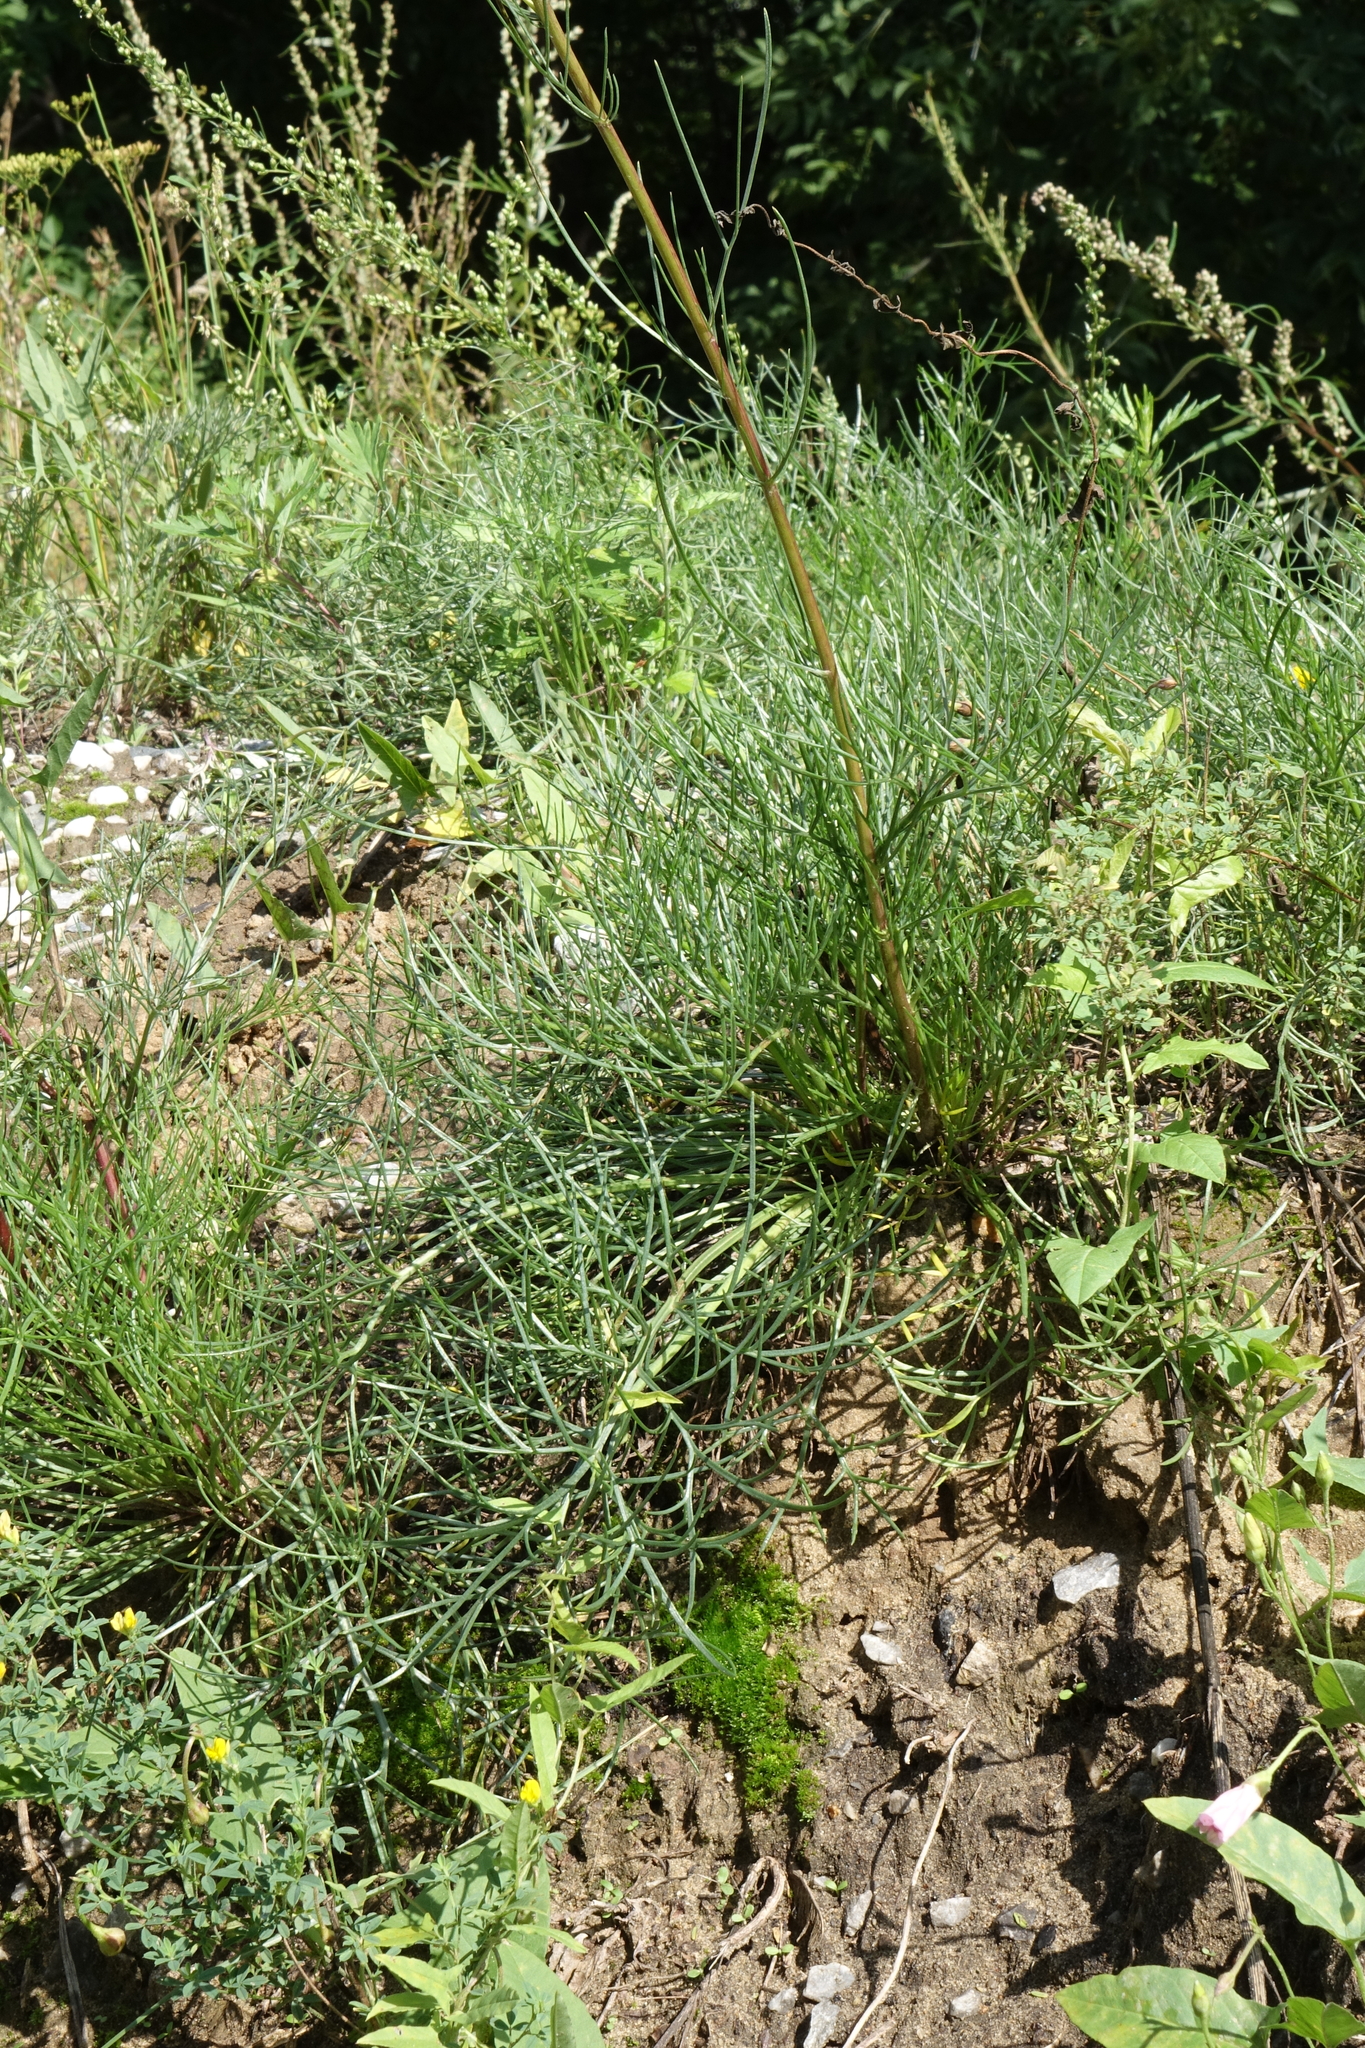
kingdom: Plantae
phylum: Tracheophyta
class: Magnoliopsida
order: Asterales
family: Asteraceae
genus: Artemisia
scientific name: Artemisia pubescens
